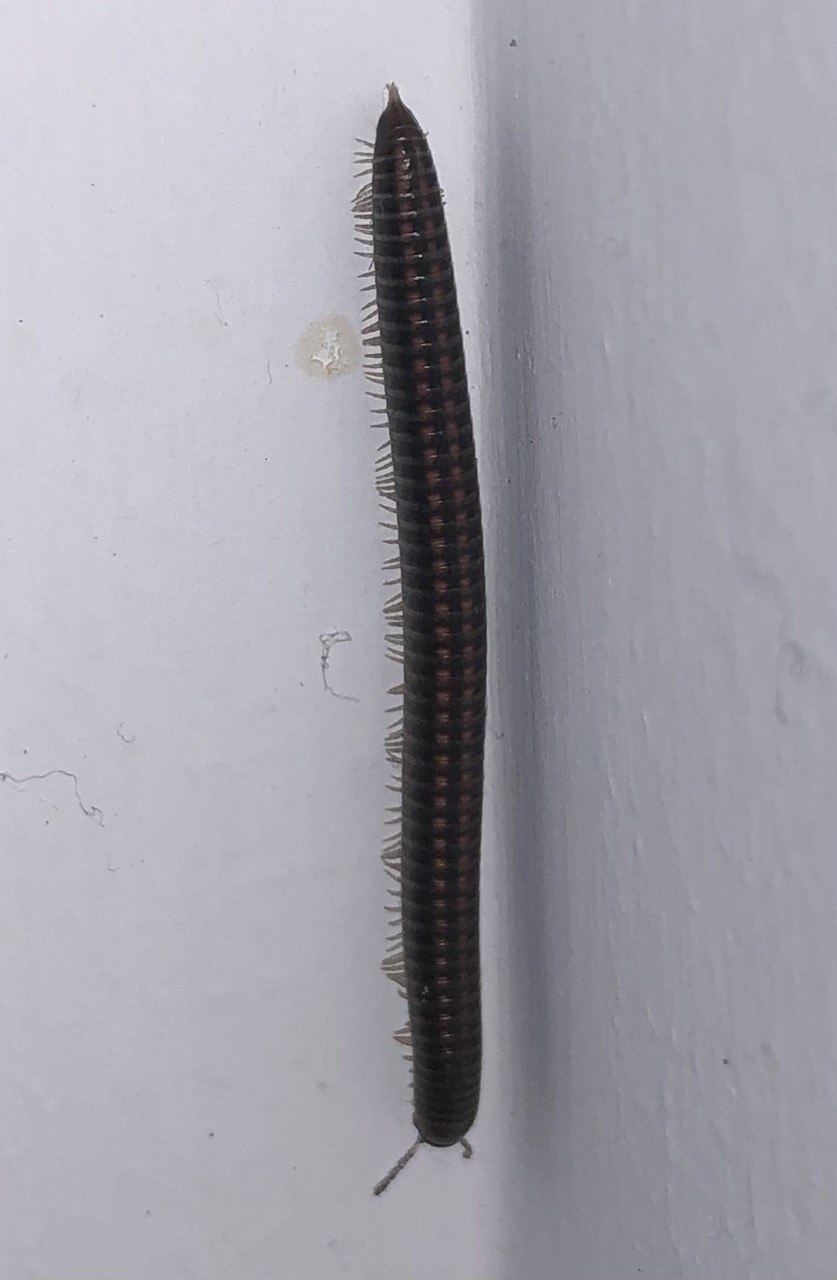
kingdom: Animalia
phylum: Arthropoda
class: Diplopoda
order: Julida
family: Julidae
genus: Ommatoiulus
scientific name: Ommatoiulus sabulosus
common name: Striped millipede
